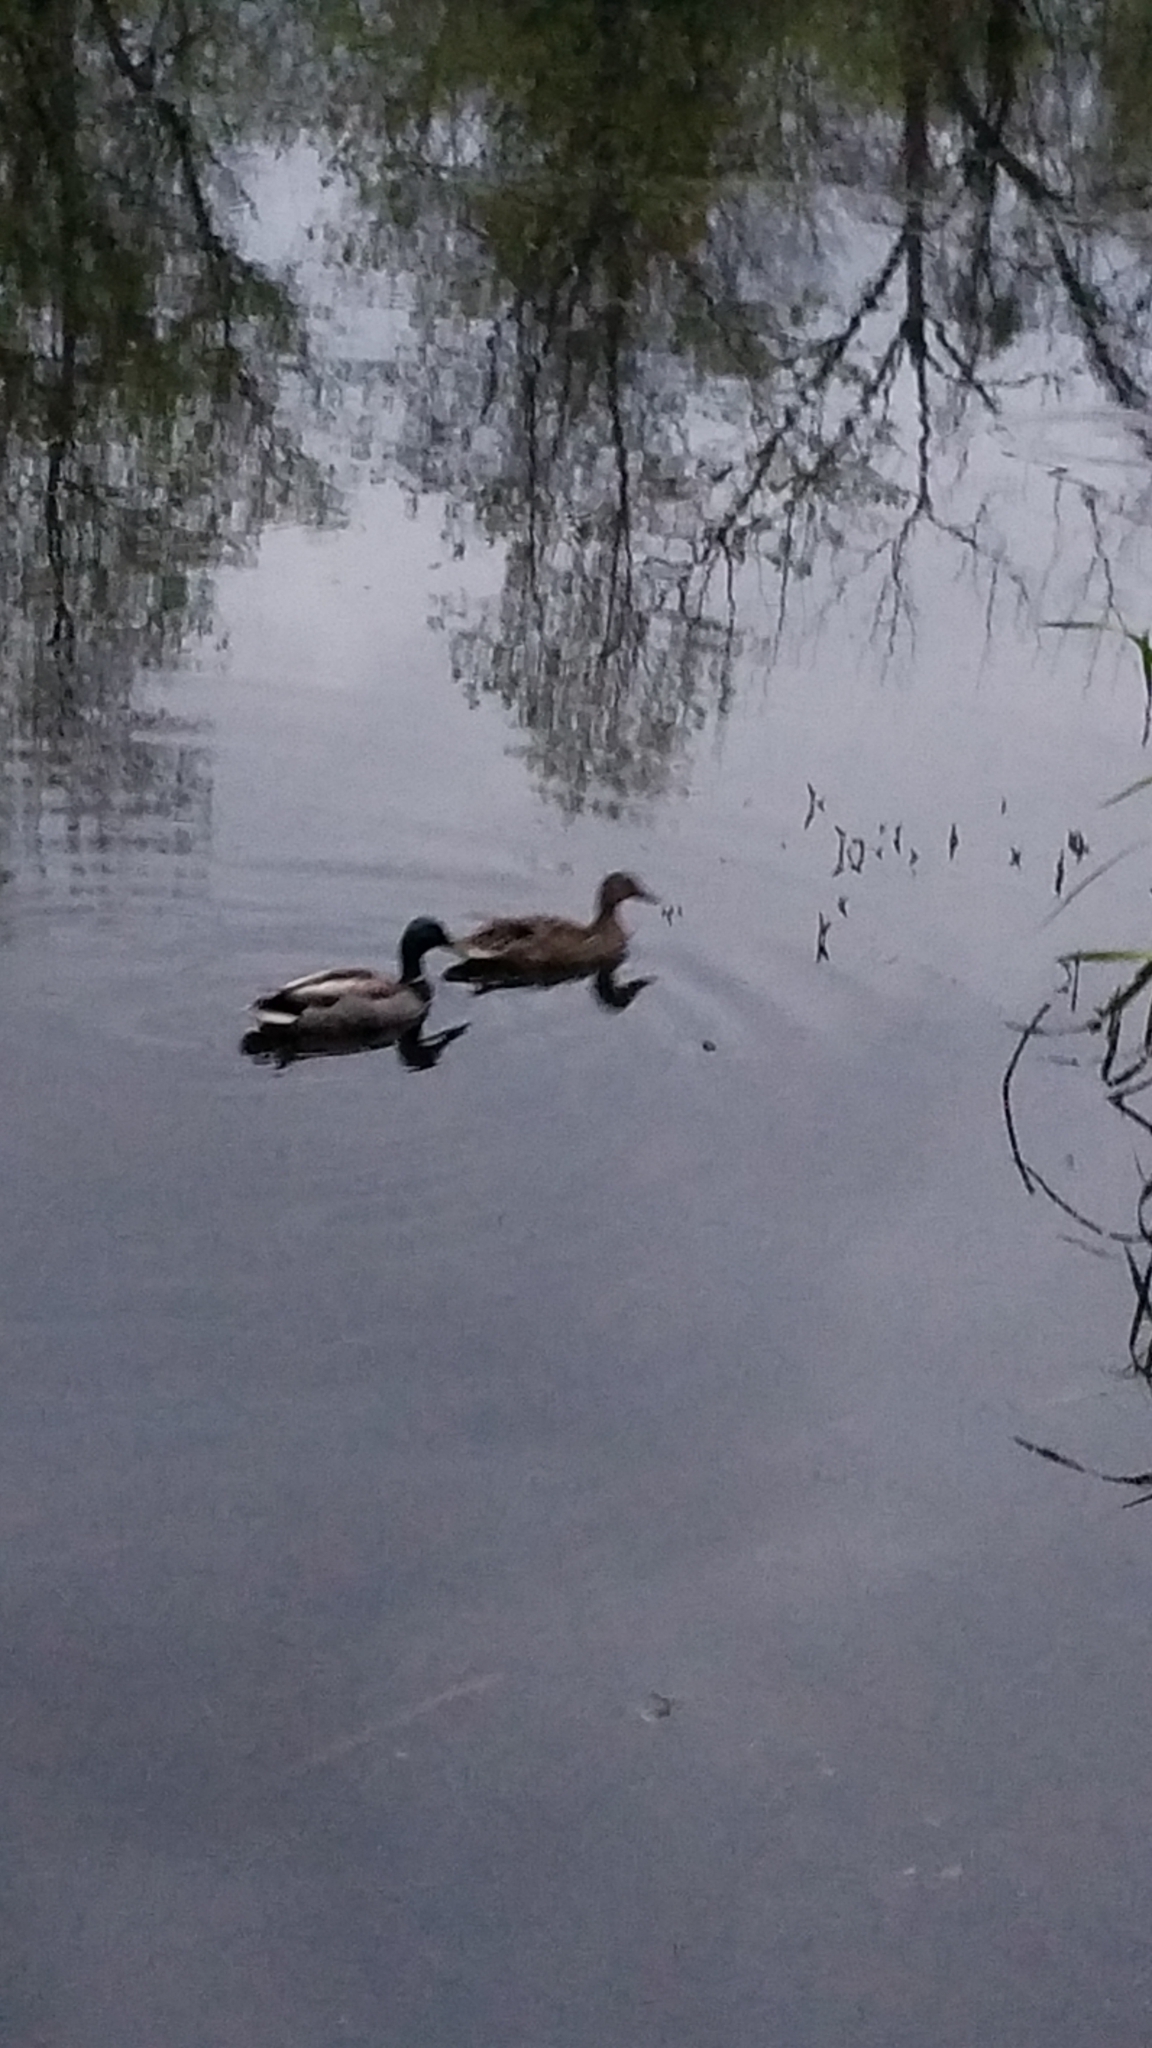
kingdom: Animalia
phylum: Chordata
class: Aves
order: Anseriformes
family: Anatidae
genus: Anas
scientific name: Anas platyrhynchos
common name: Mallard
